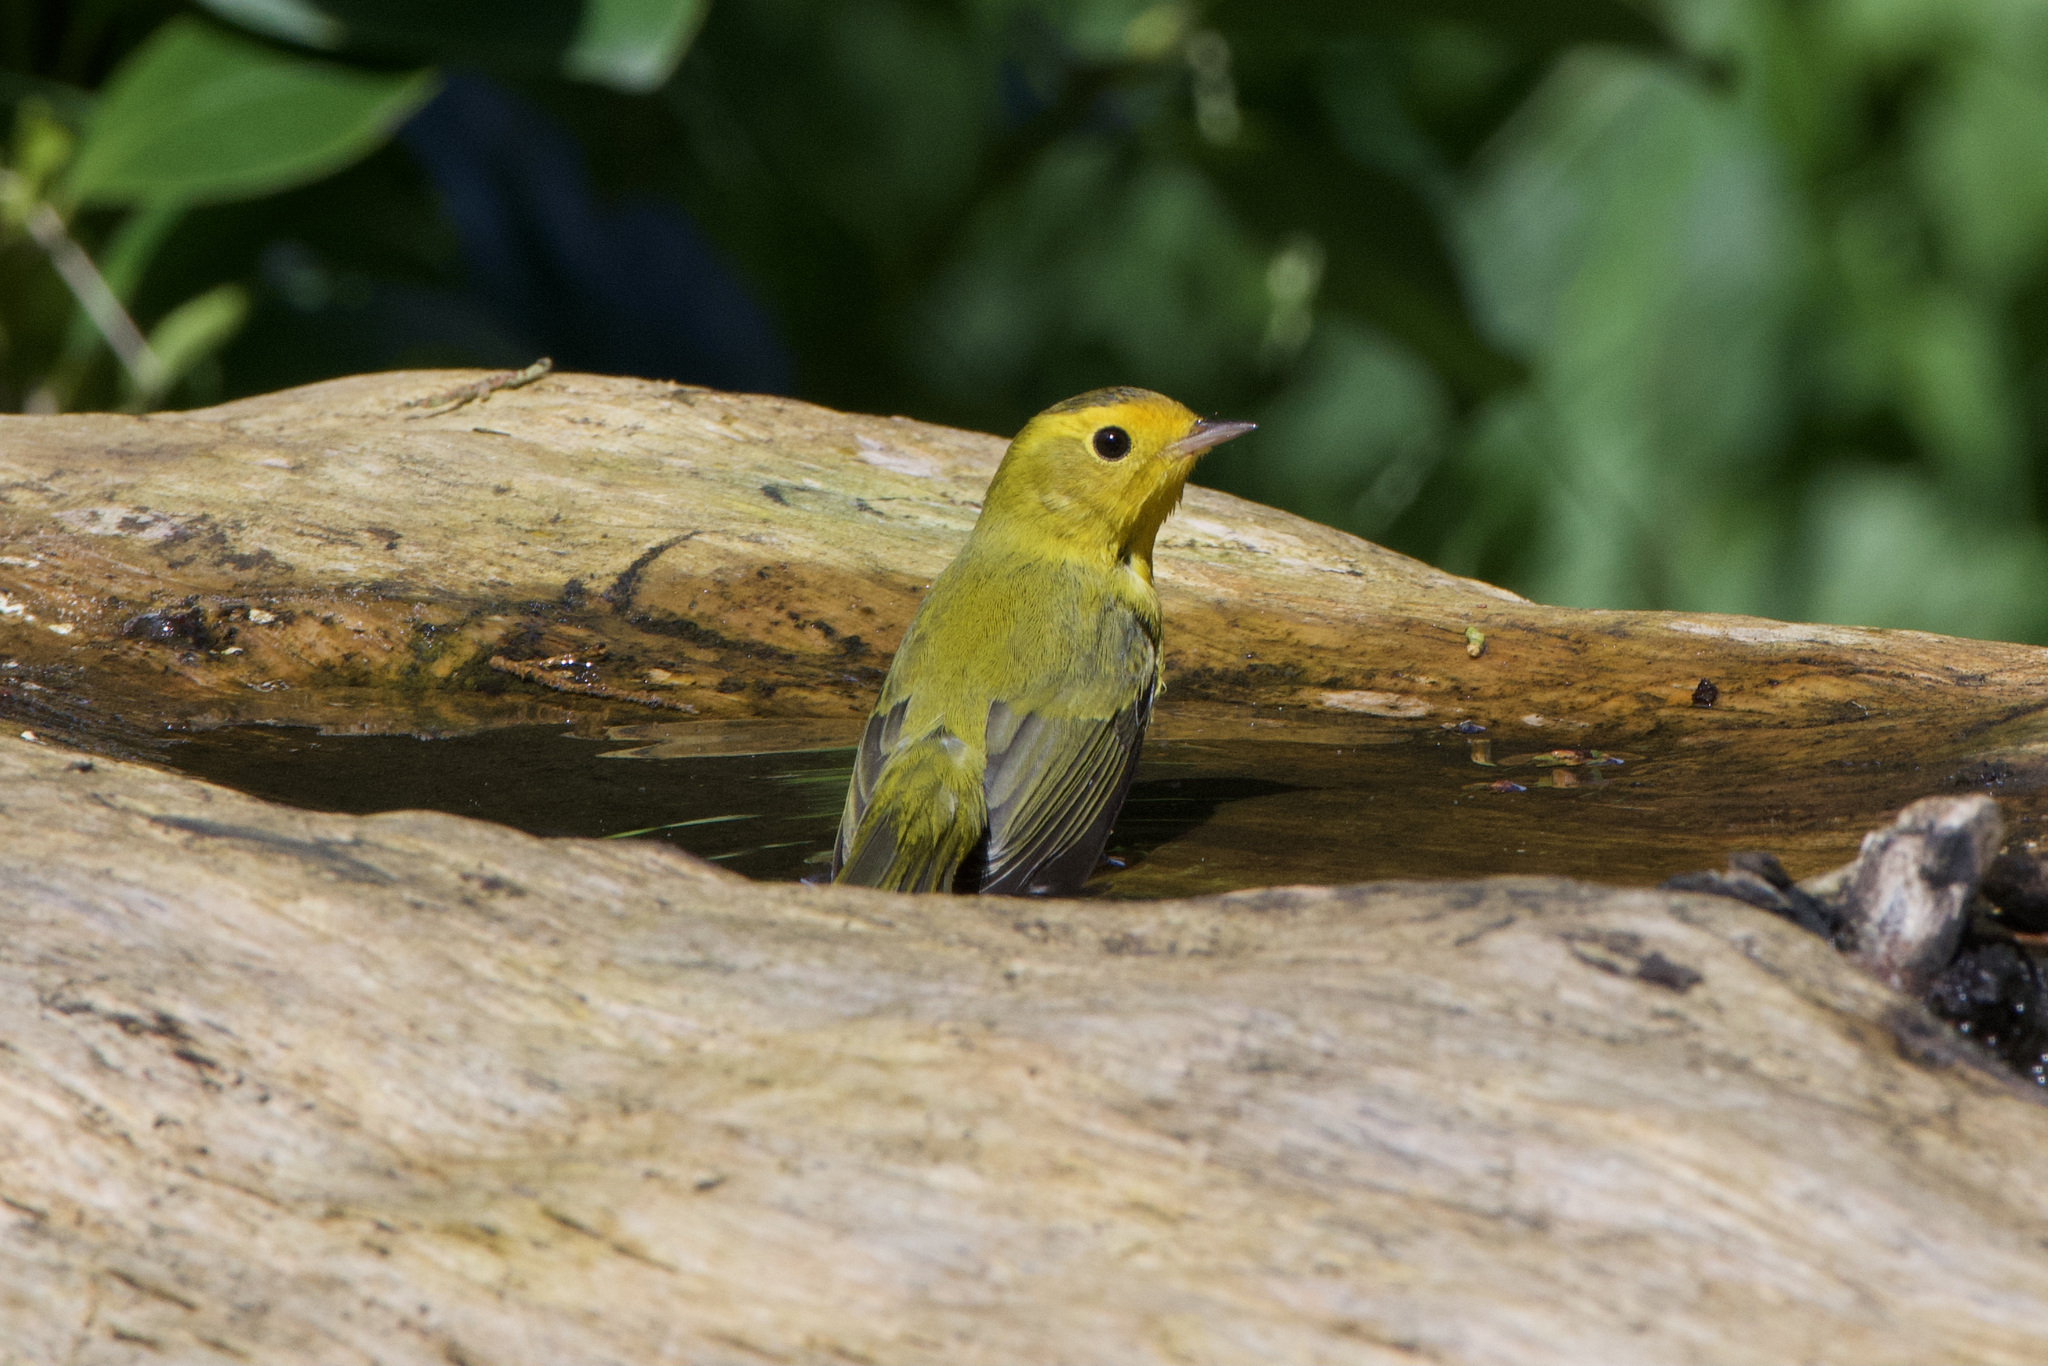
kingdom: Animalia
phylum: Chordata
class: Aves
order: Passeriformes
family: Parulidae
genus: Cardellina
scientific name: Cardellina pusilla
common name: Wilson's warbler
